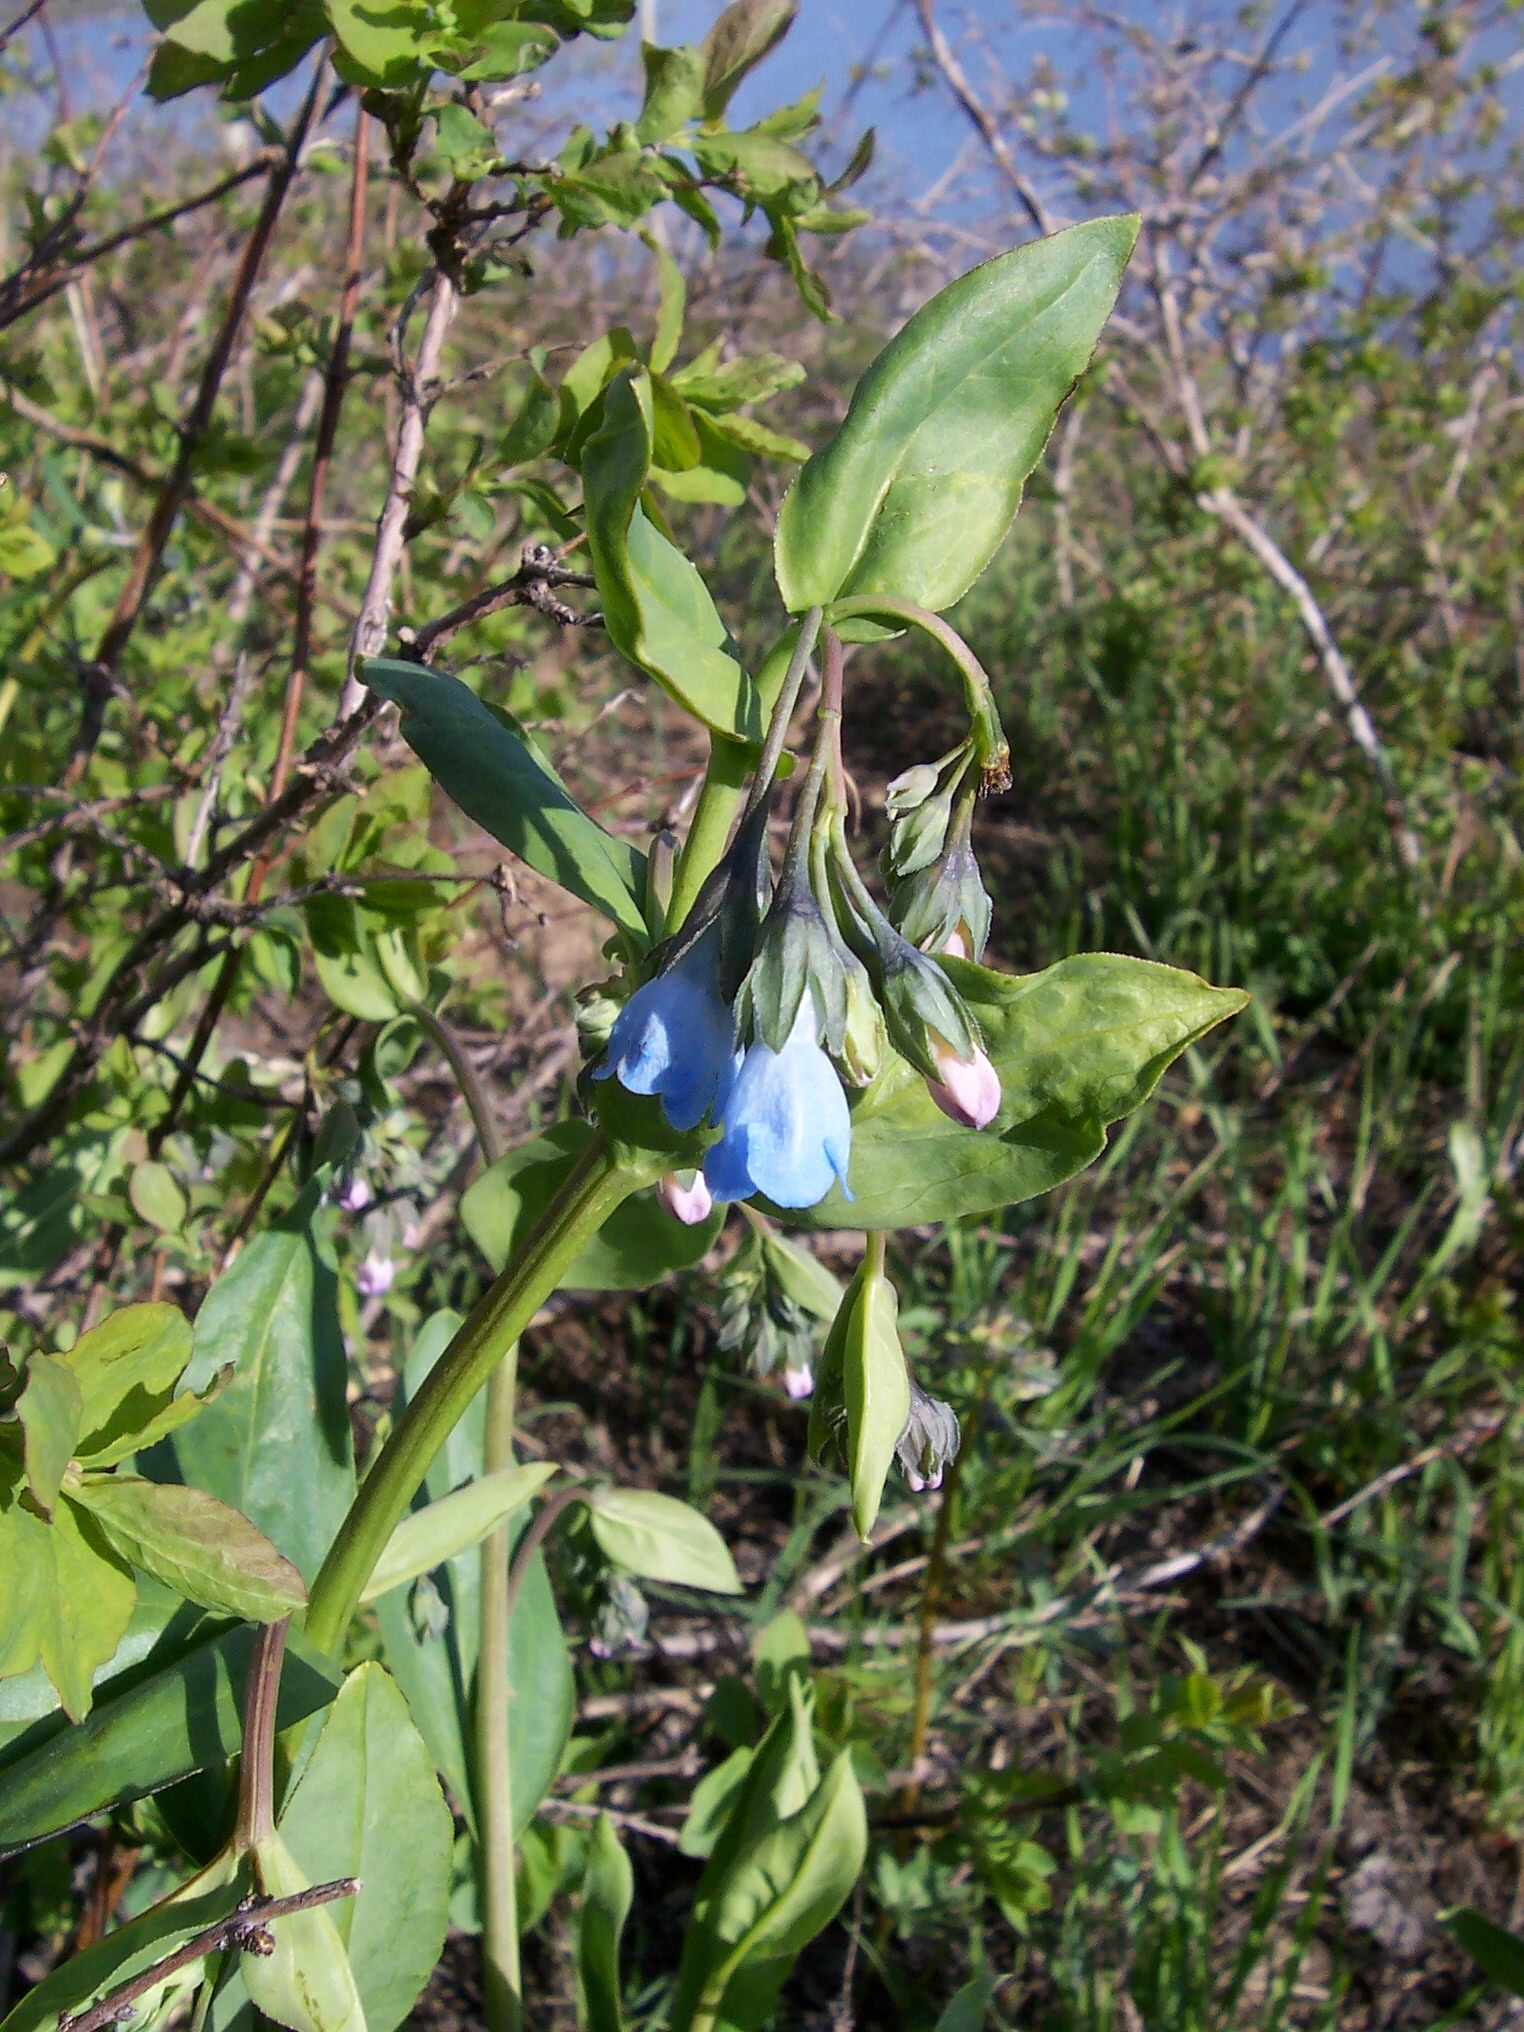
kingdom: Plantae
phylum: Tracheophyta
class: Magnoliopsida
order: Boraginales
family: Boraginaceae
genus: Mertensia
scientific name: Mertensia arizonica
